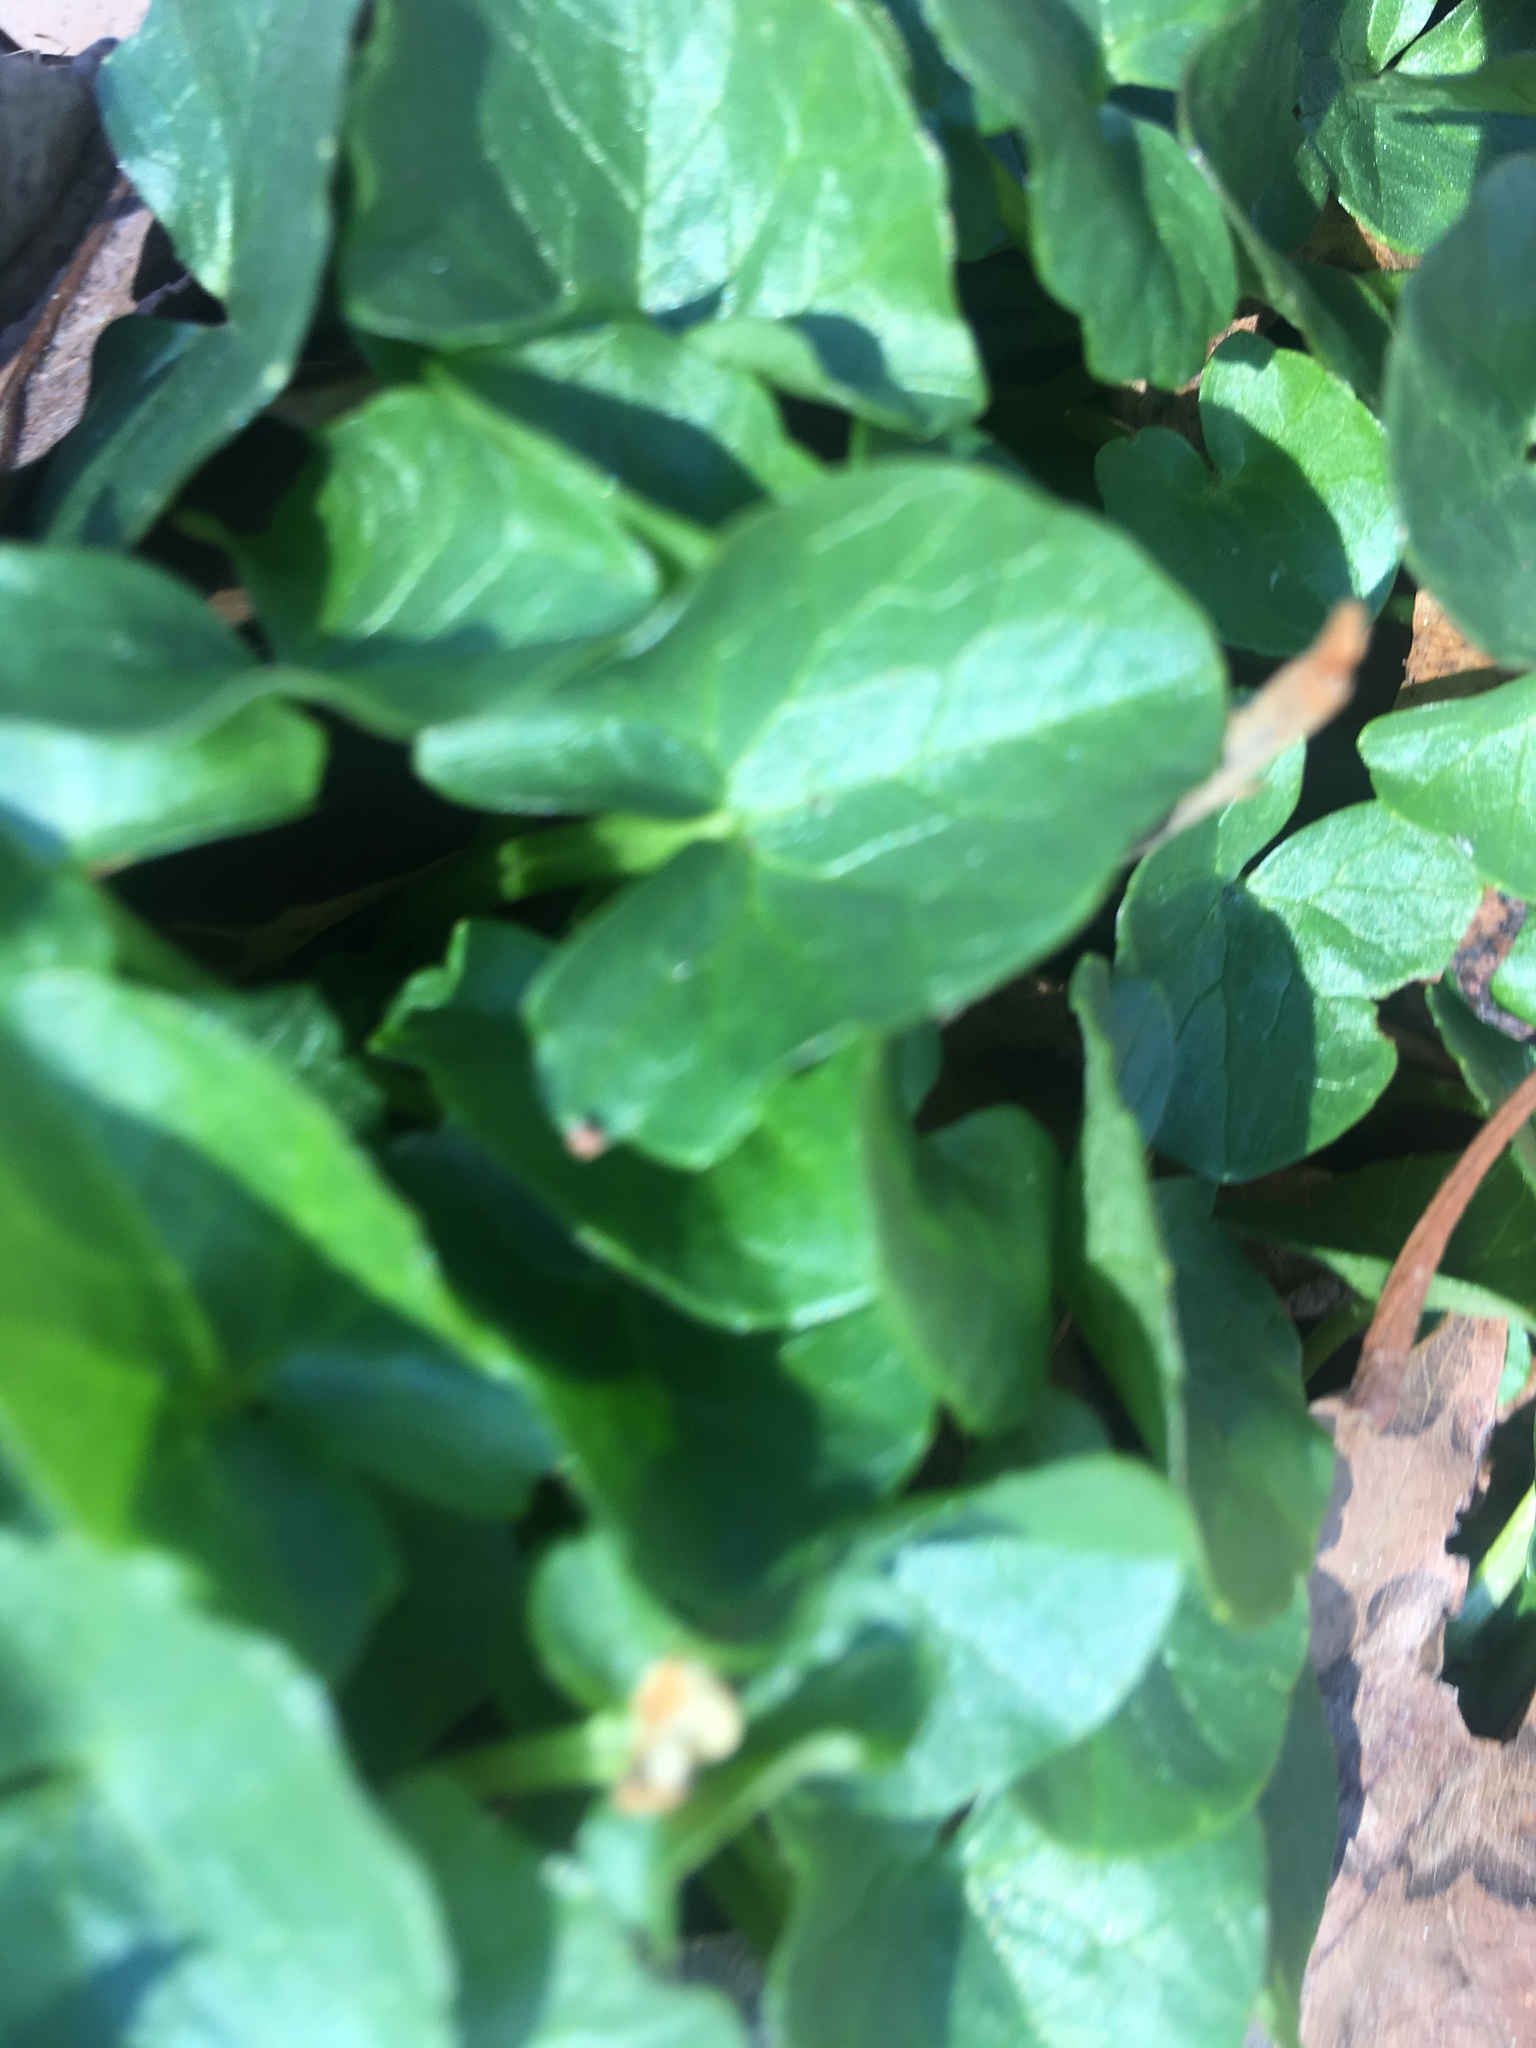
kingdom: Plantae
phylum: Tracheophyta
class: Magnoliopsida
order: Ranunculales
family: Ranunculaceae
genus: Ficaria
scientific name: Ficaria verna
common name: Lesser celandine
